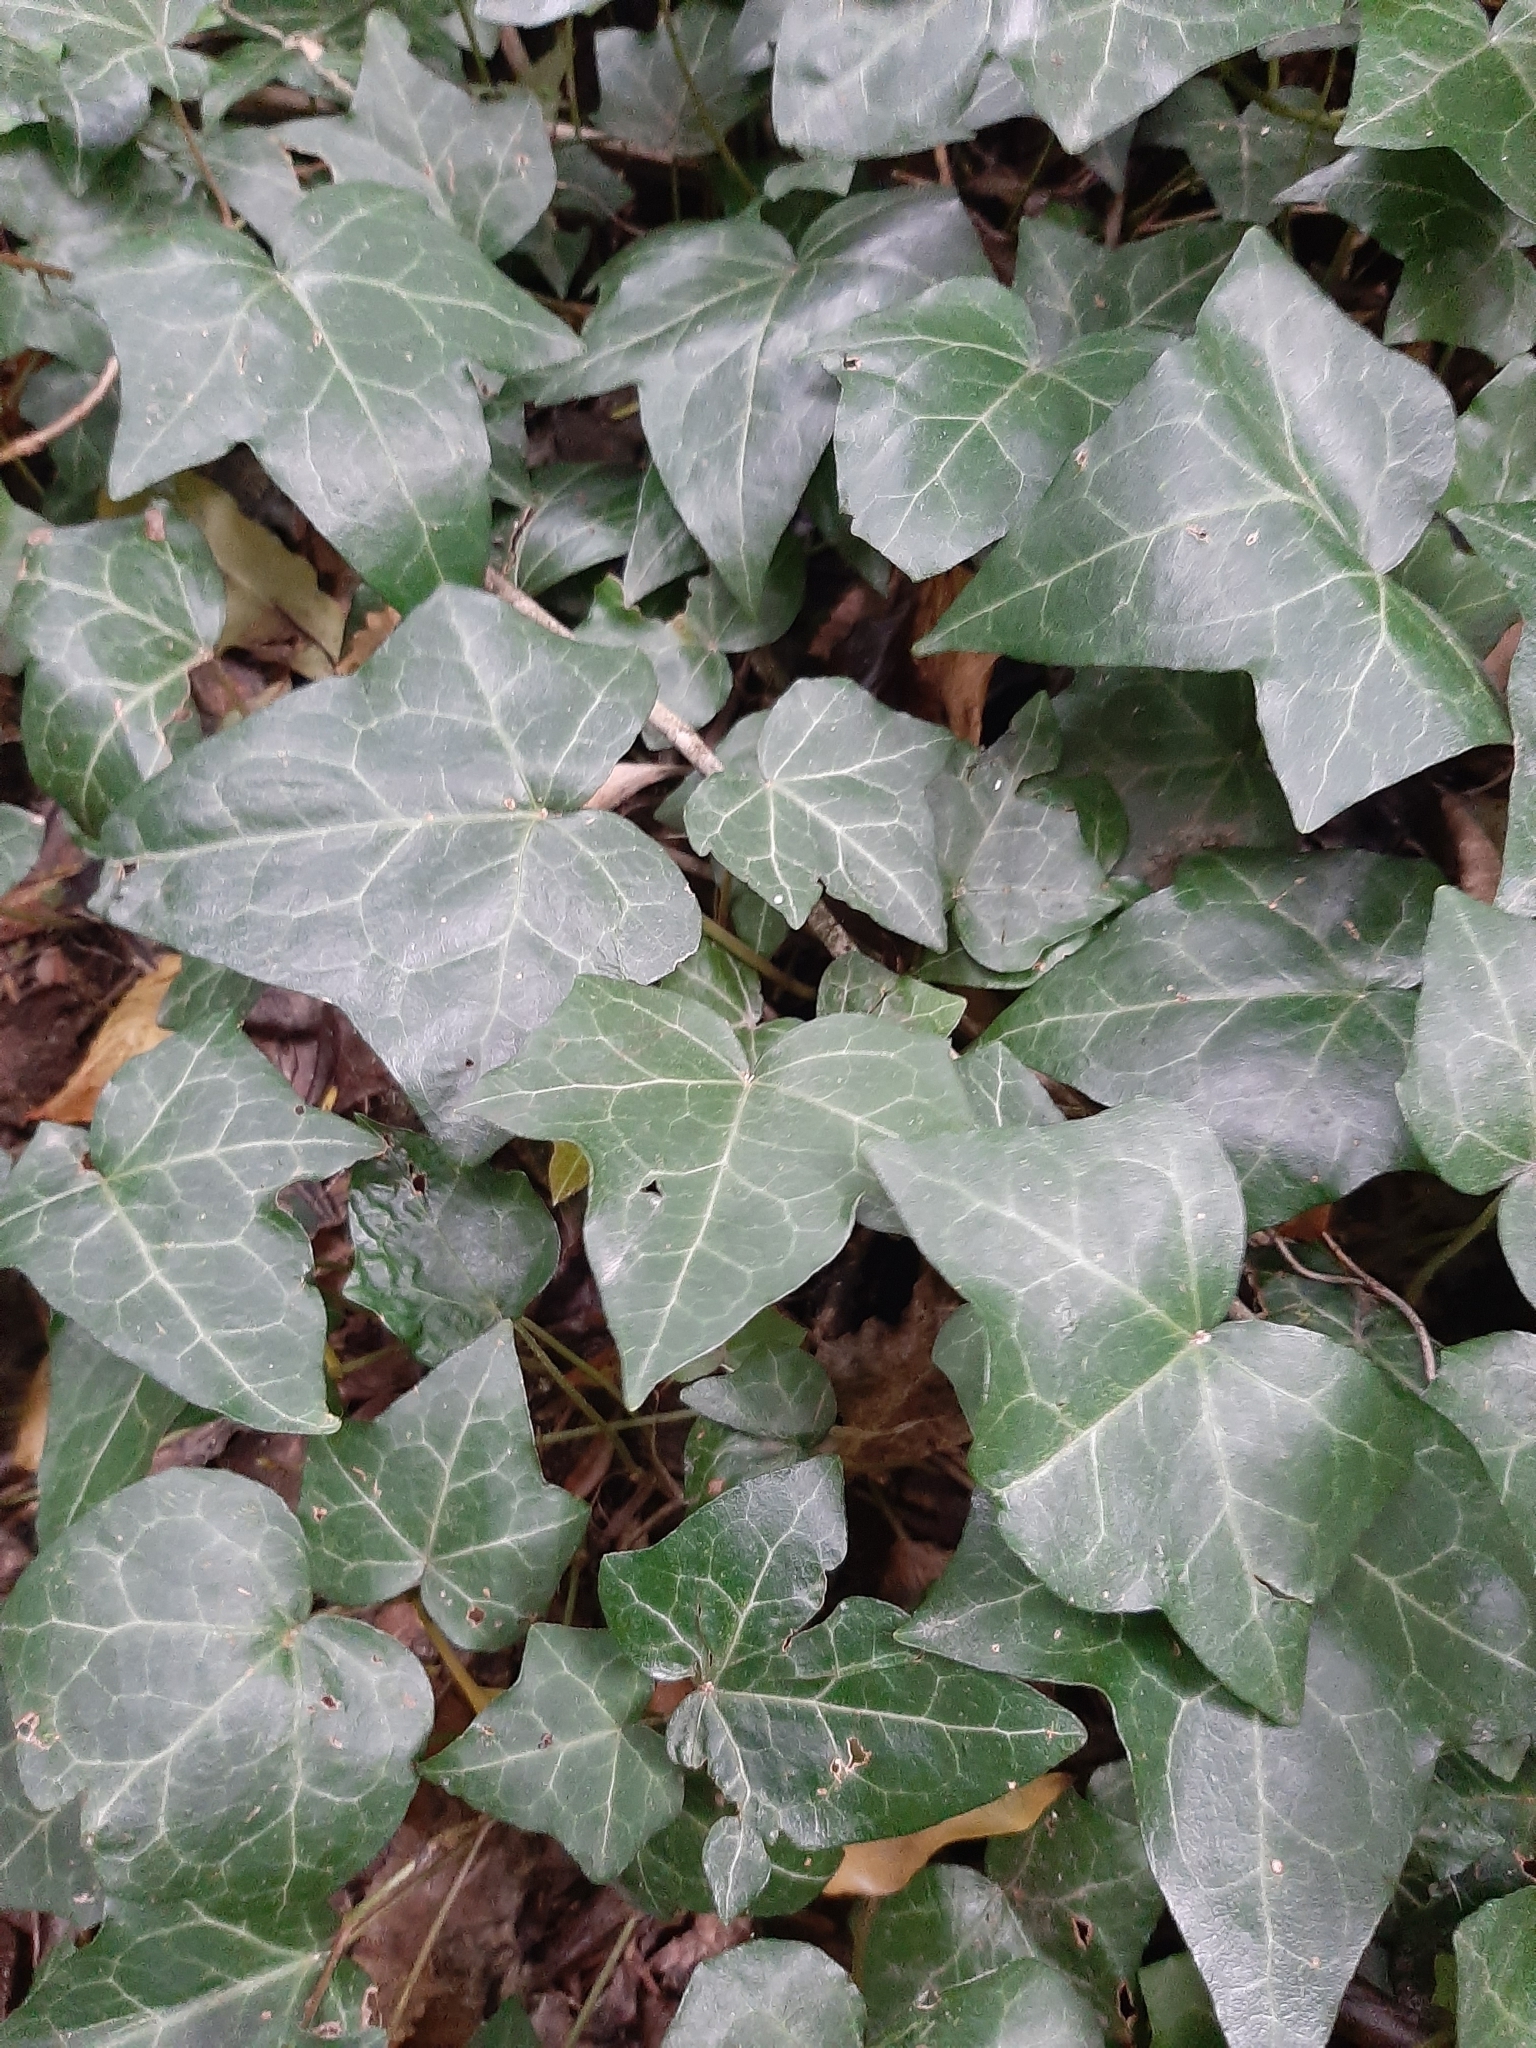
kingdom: Plantae
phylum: Tracheophyta
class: Magnoliopsida
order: Apiales
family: Araliaceae
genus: Hedera
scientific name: Hedera helix
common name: Ivy
